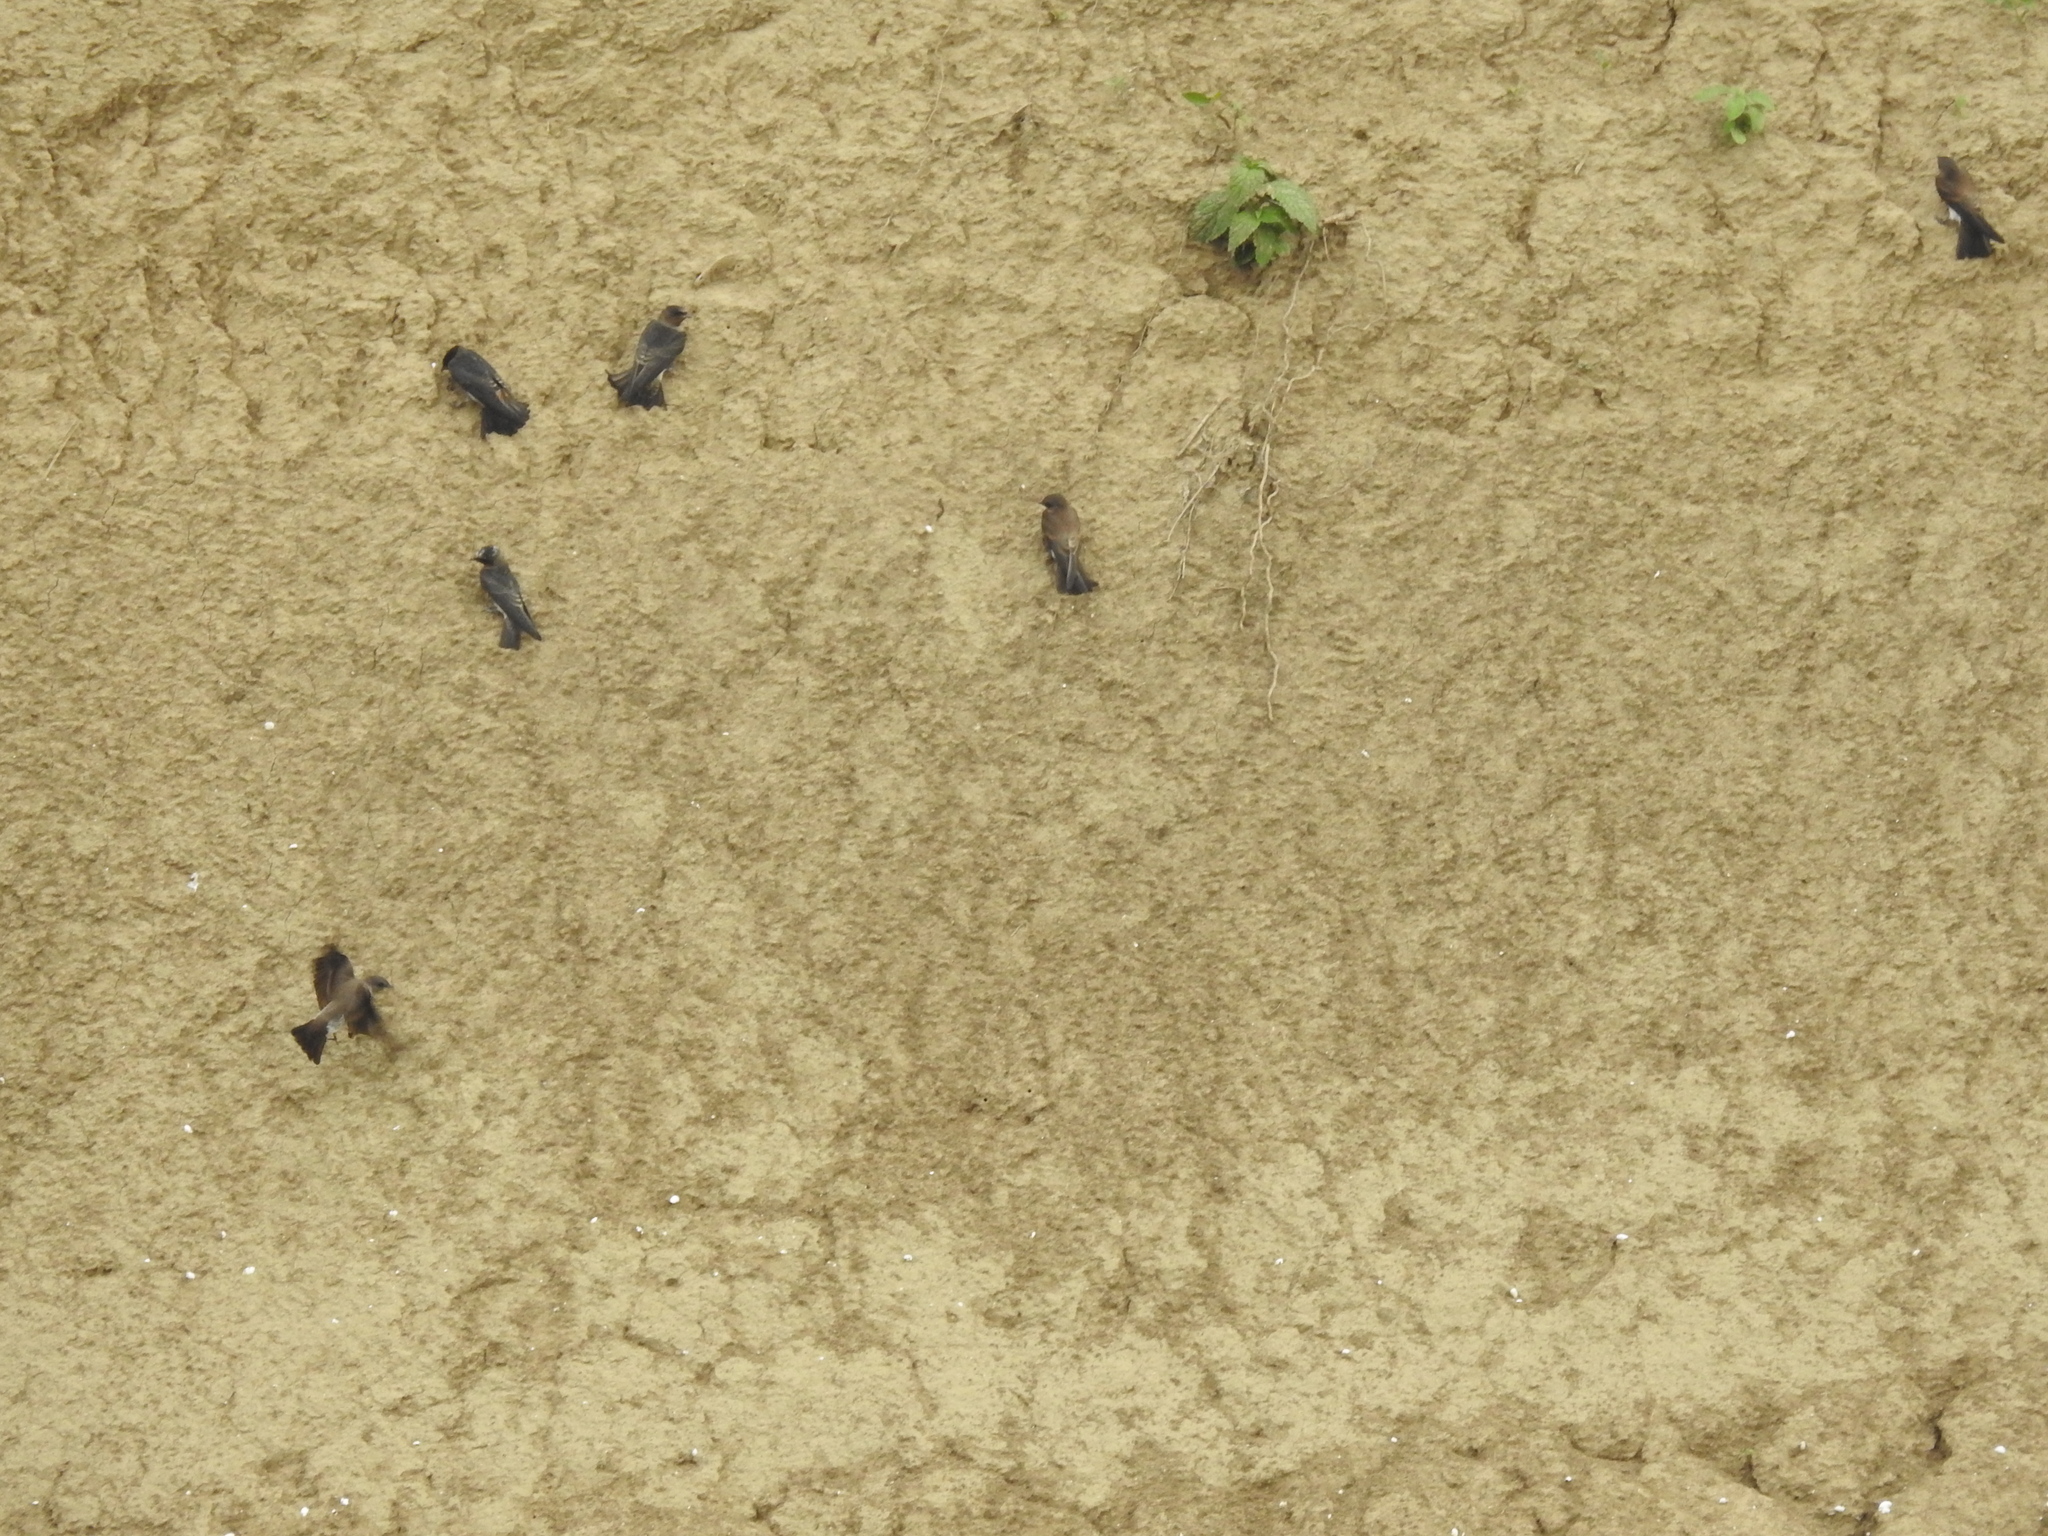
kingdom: Animalia
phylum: Chordata
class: Aves
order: Passeriformes
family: Hirundinidae
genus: Stelgidopteryx
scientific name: Stelgidopteryx serripennis
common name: Northern rough-winged swallow
